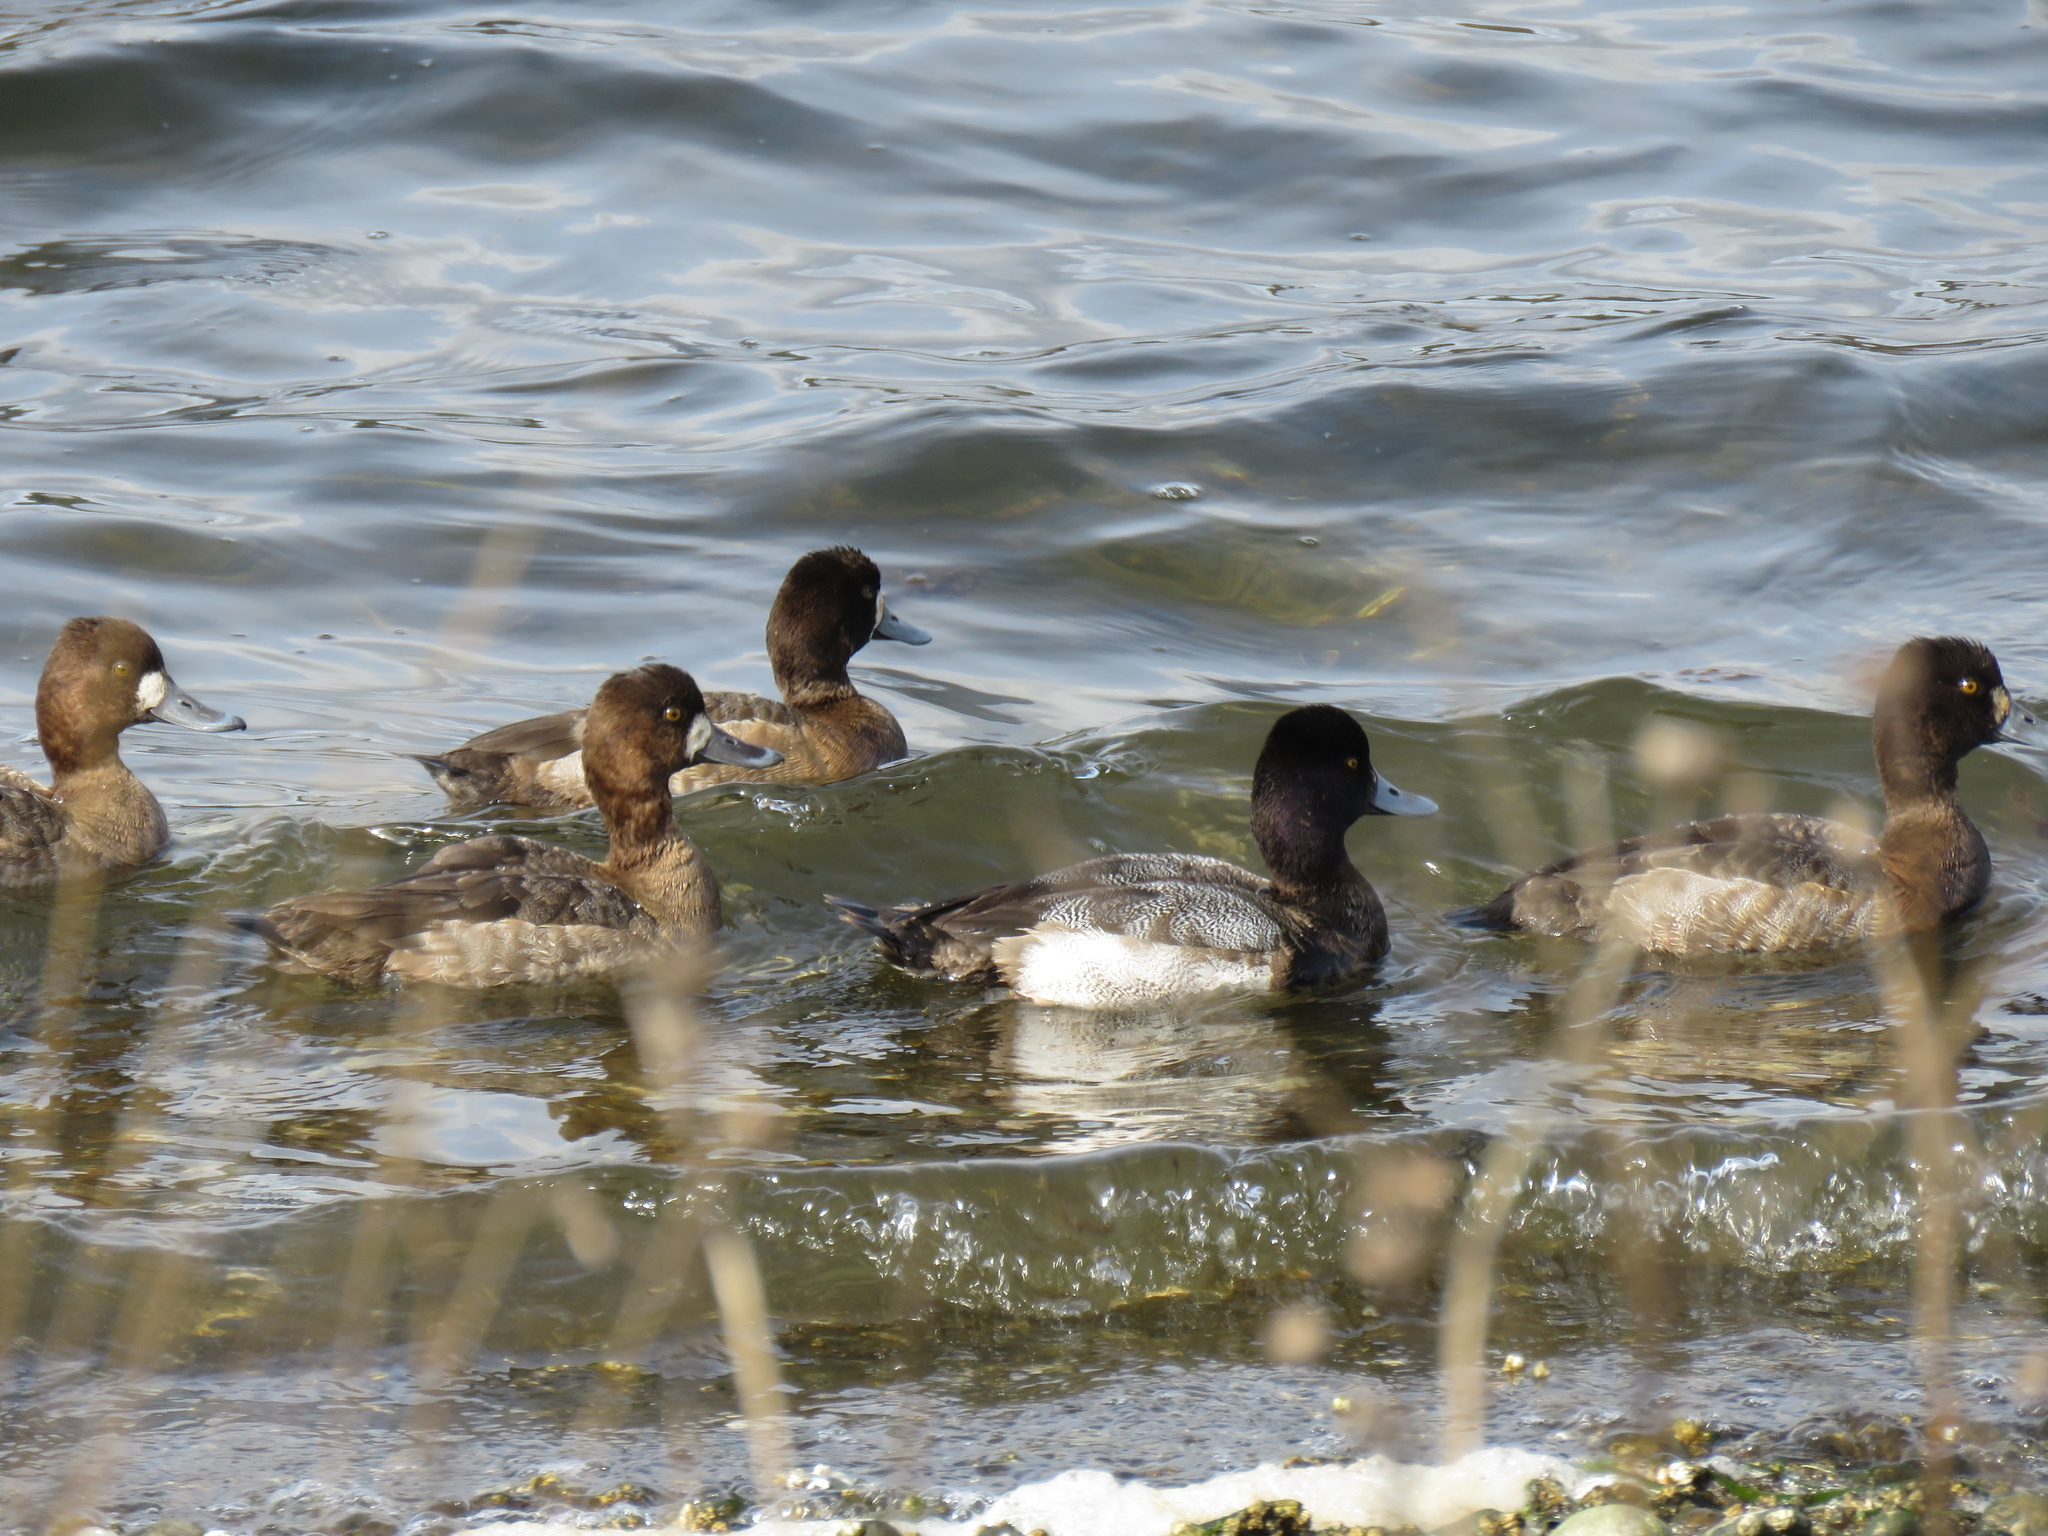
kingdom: Animalia
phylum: Chordata
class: Aves
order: Anseriformes
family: Anatidae
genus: Aythya
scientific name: Aythya marila
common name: Greater scaup
